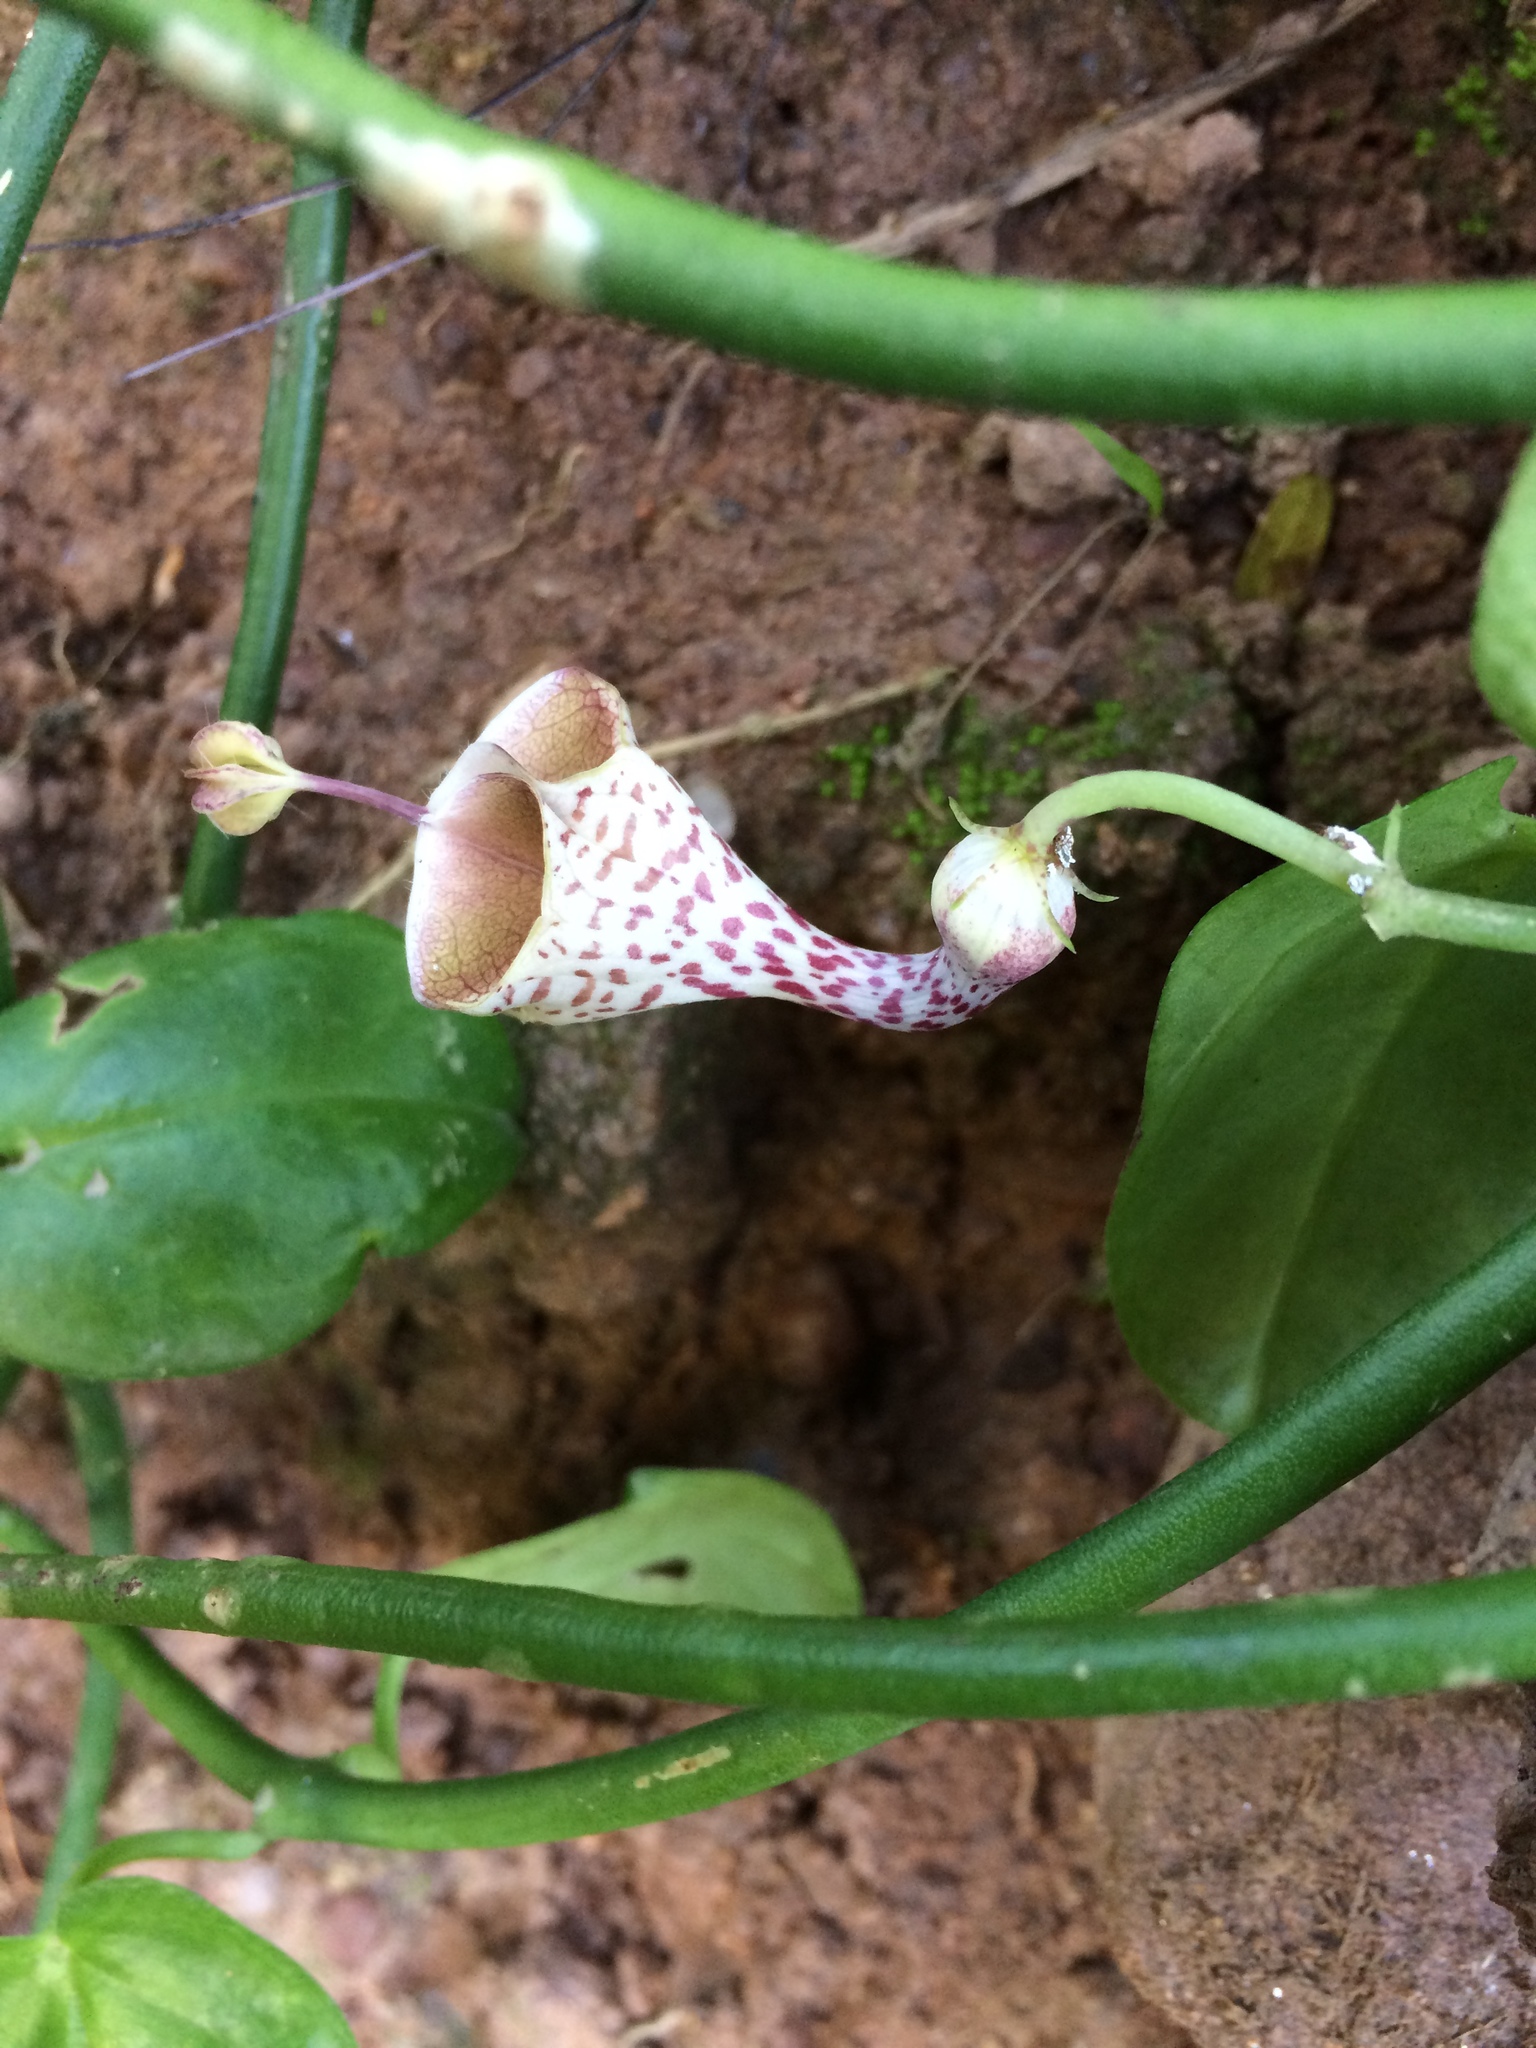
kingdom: Plantae
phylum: Tracheophyta
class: Magnoliopsida
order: Gentianales
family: Apocynaceae
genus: Ceropegia
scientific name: Ceropegia distincta
